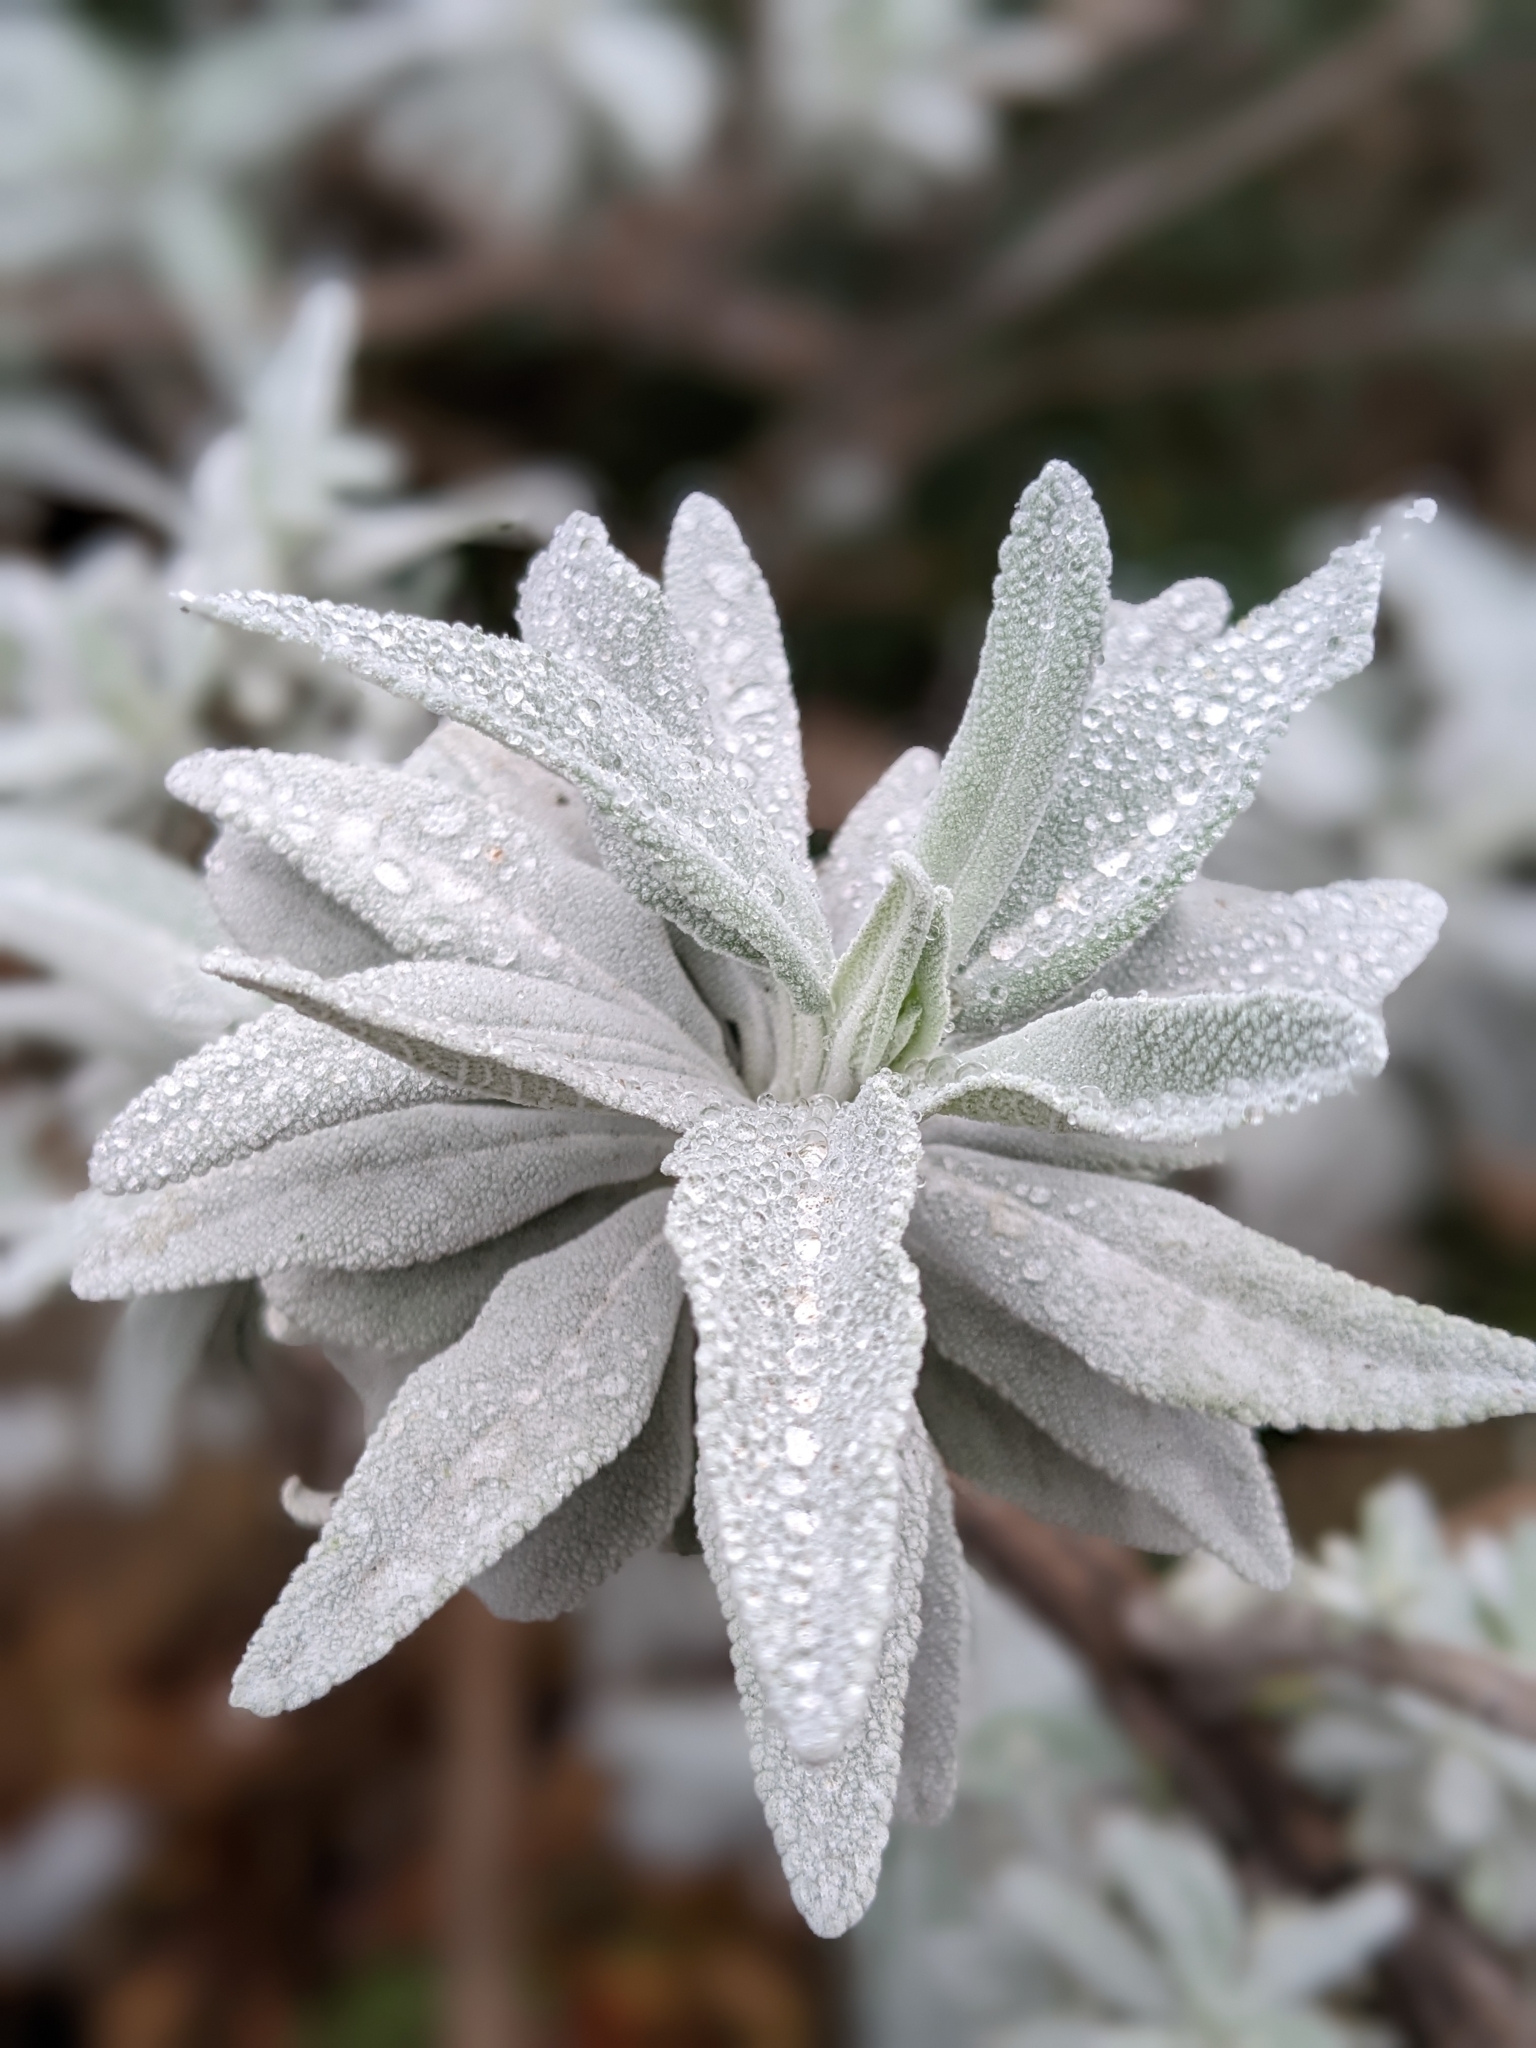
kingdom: Plantae
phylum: Tracheophyta
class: Magnoliopsida
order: Lamiales
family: Lamiaceae
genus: Salvia
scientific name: Salvia apiana
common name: White sage
